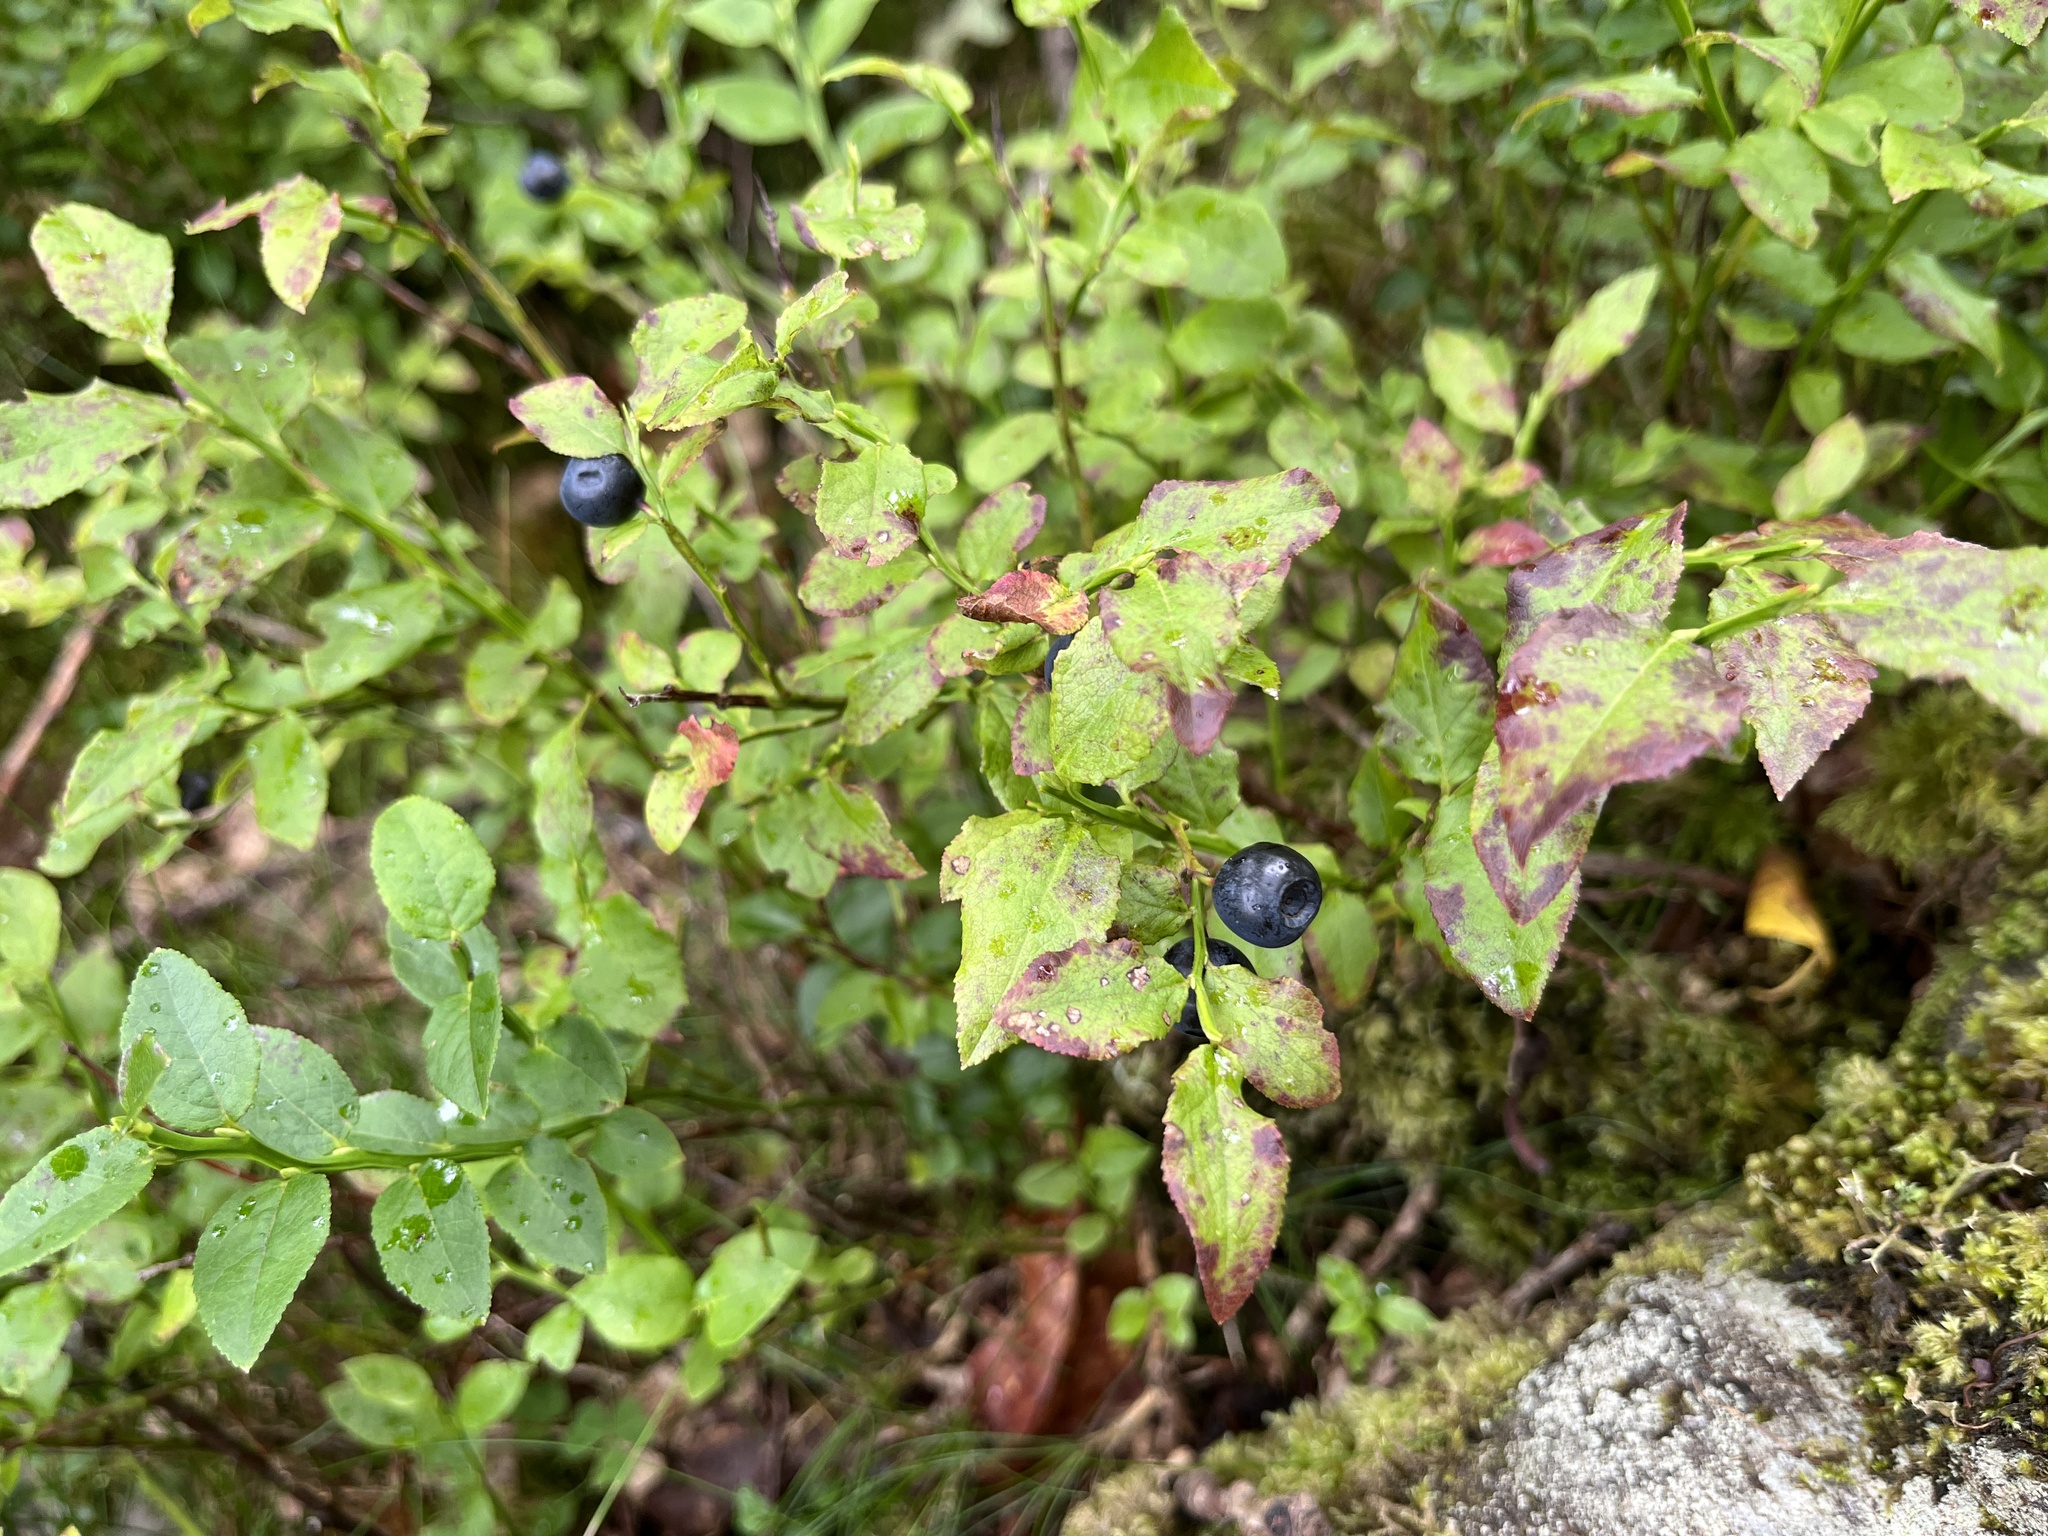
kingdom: Plantae
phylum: Tracheophyta
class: Magnoliopsida
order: Ericales
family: Ericaceae
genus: Vaccinium
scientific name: Vaccinium myrtillus
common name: Bilberry
